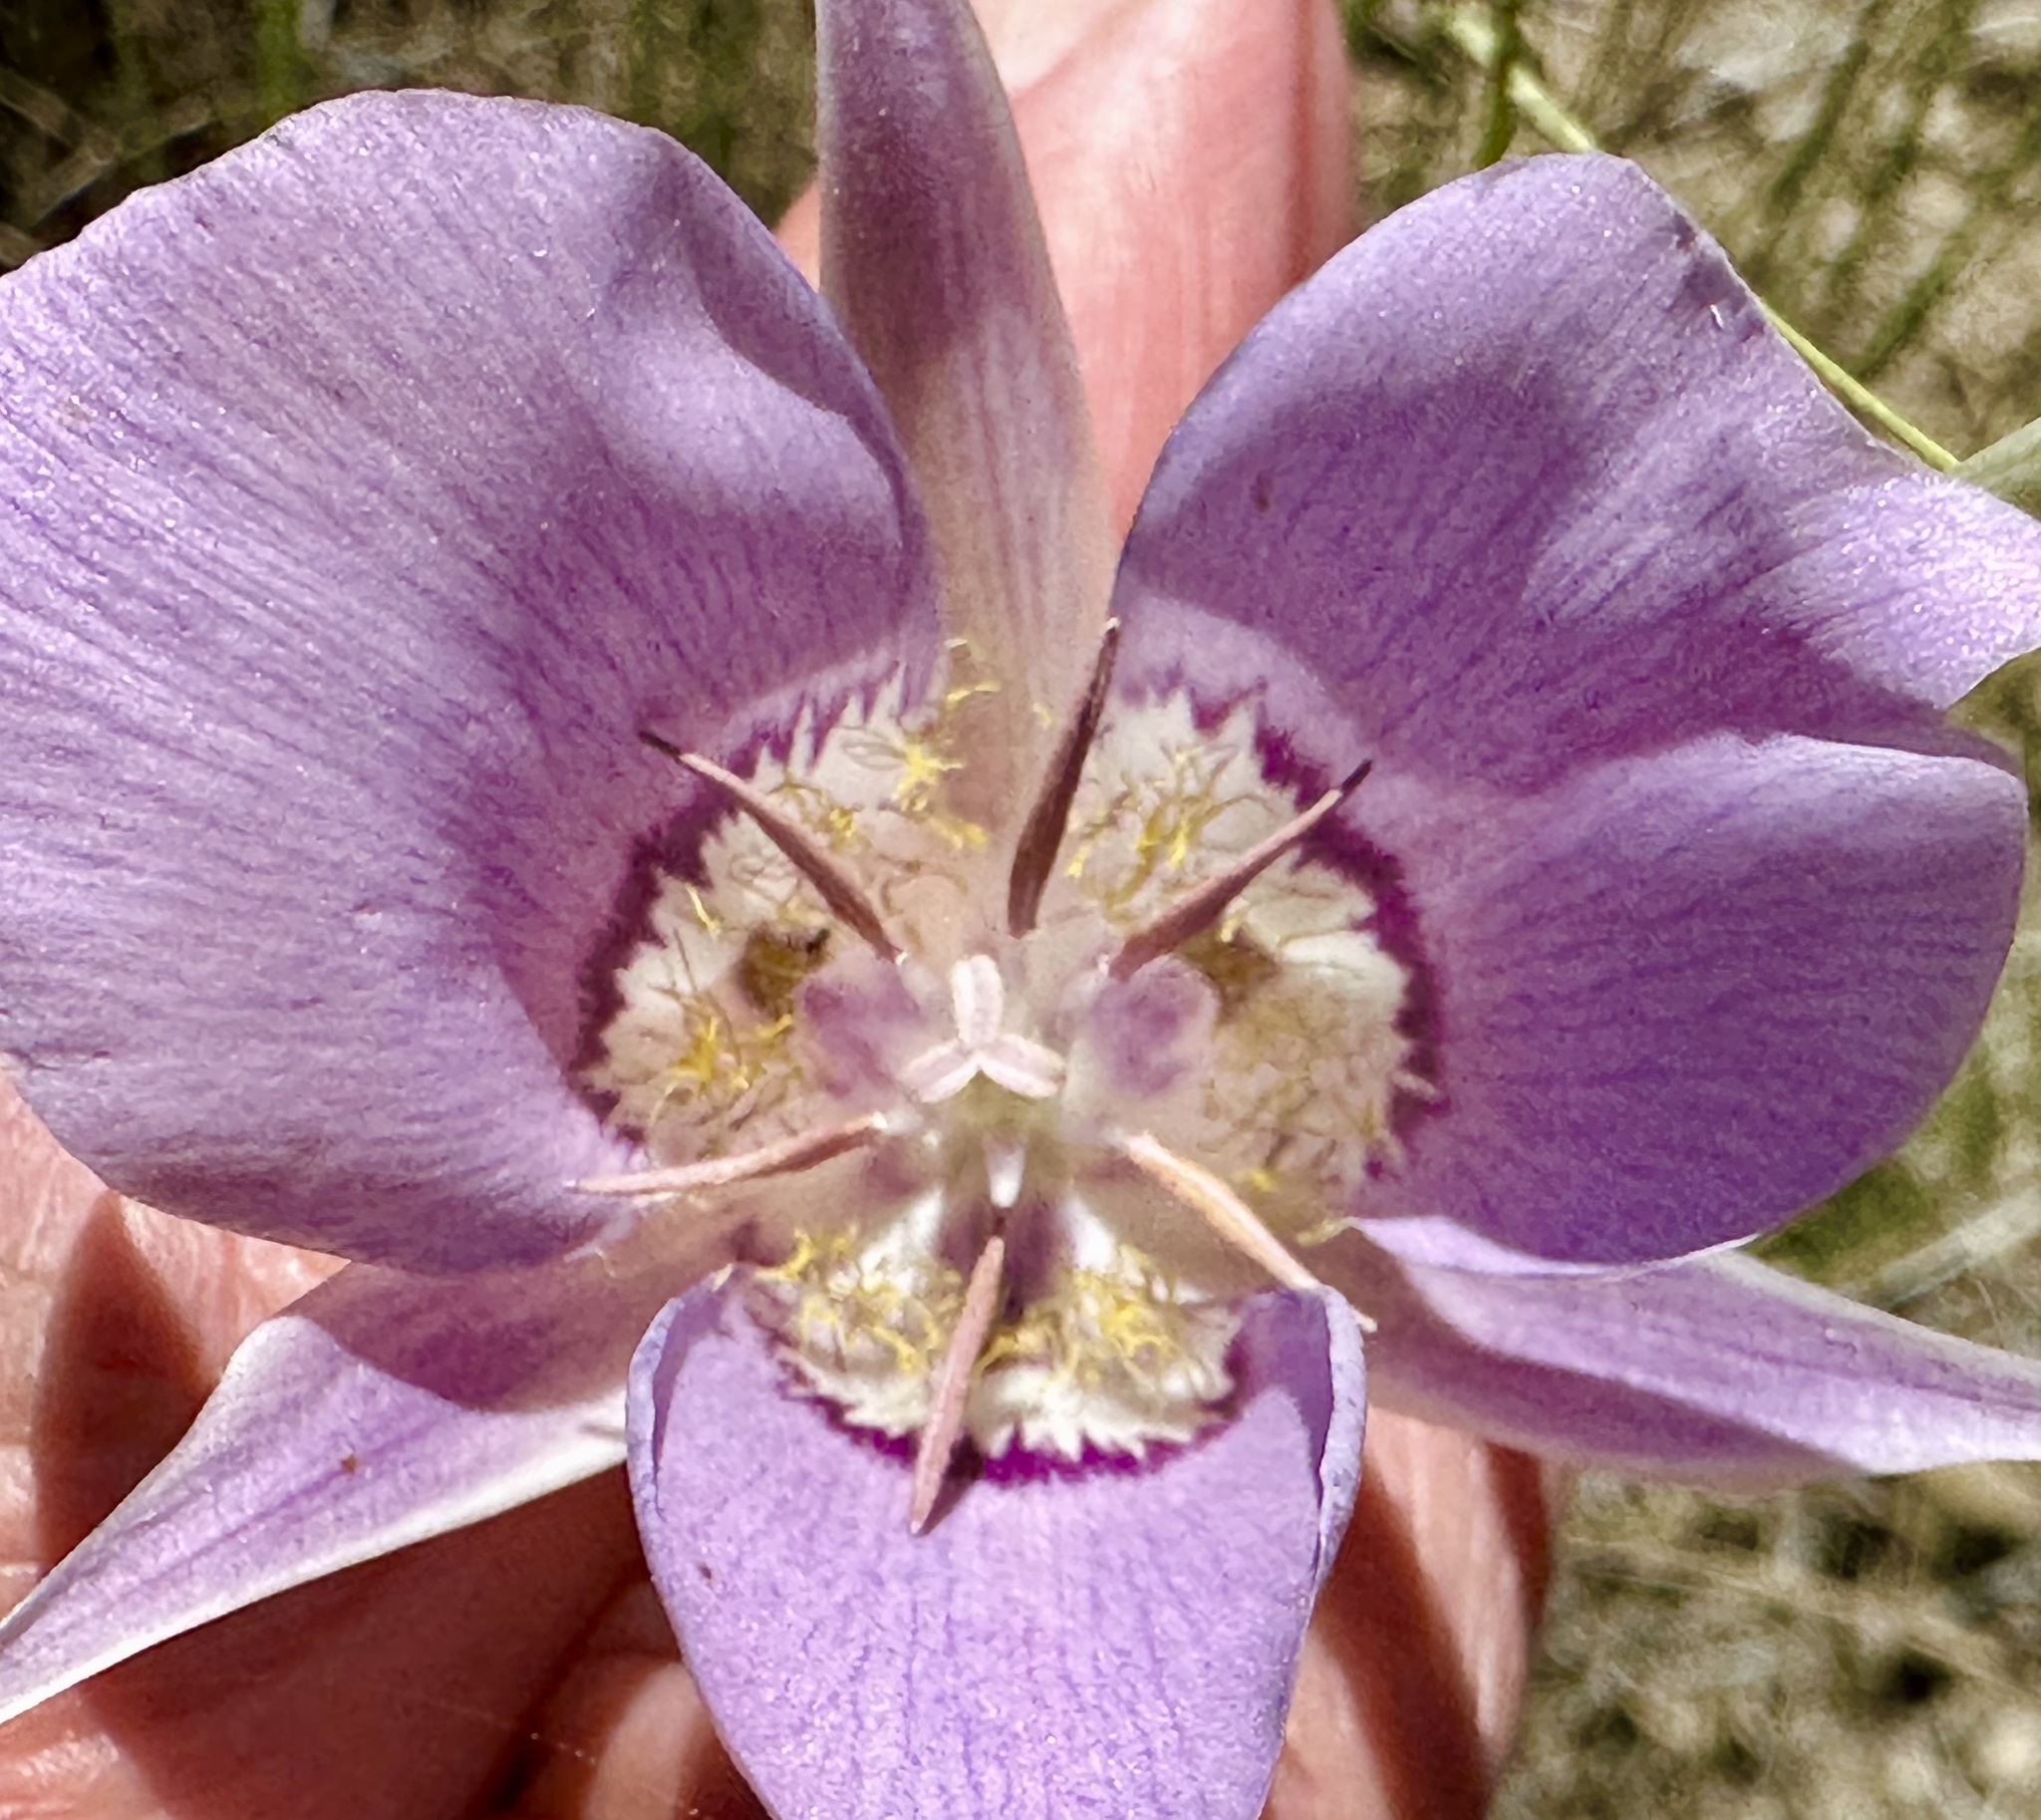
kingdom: Plantae
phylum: Tracheophyta
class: Liliopsida
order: Liliales
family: Liliaceae
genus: Calochortus
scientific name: Calochortus macrocarpus
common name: Green-band mariposa lily
